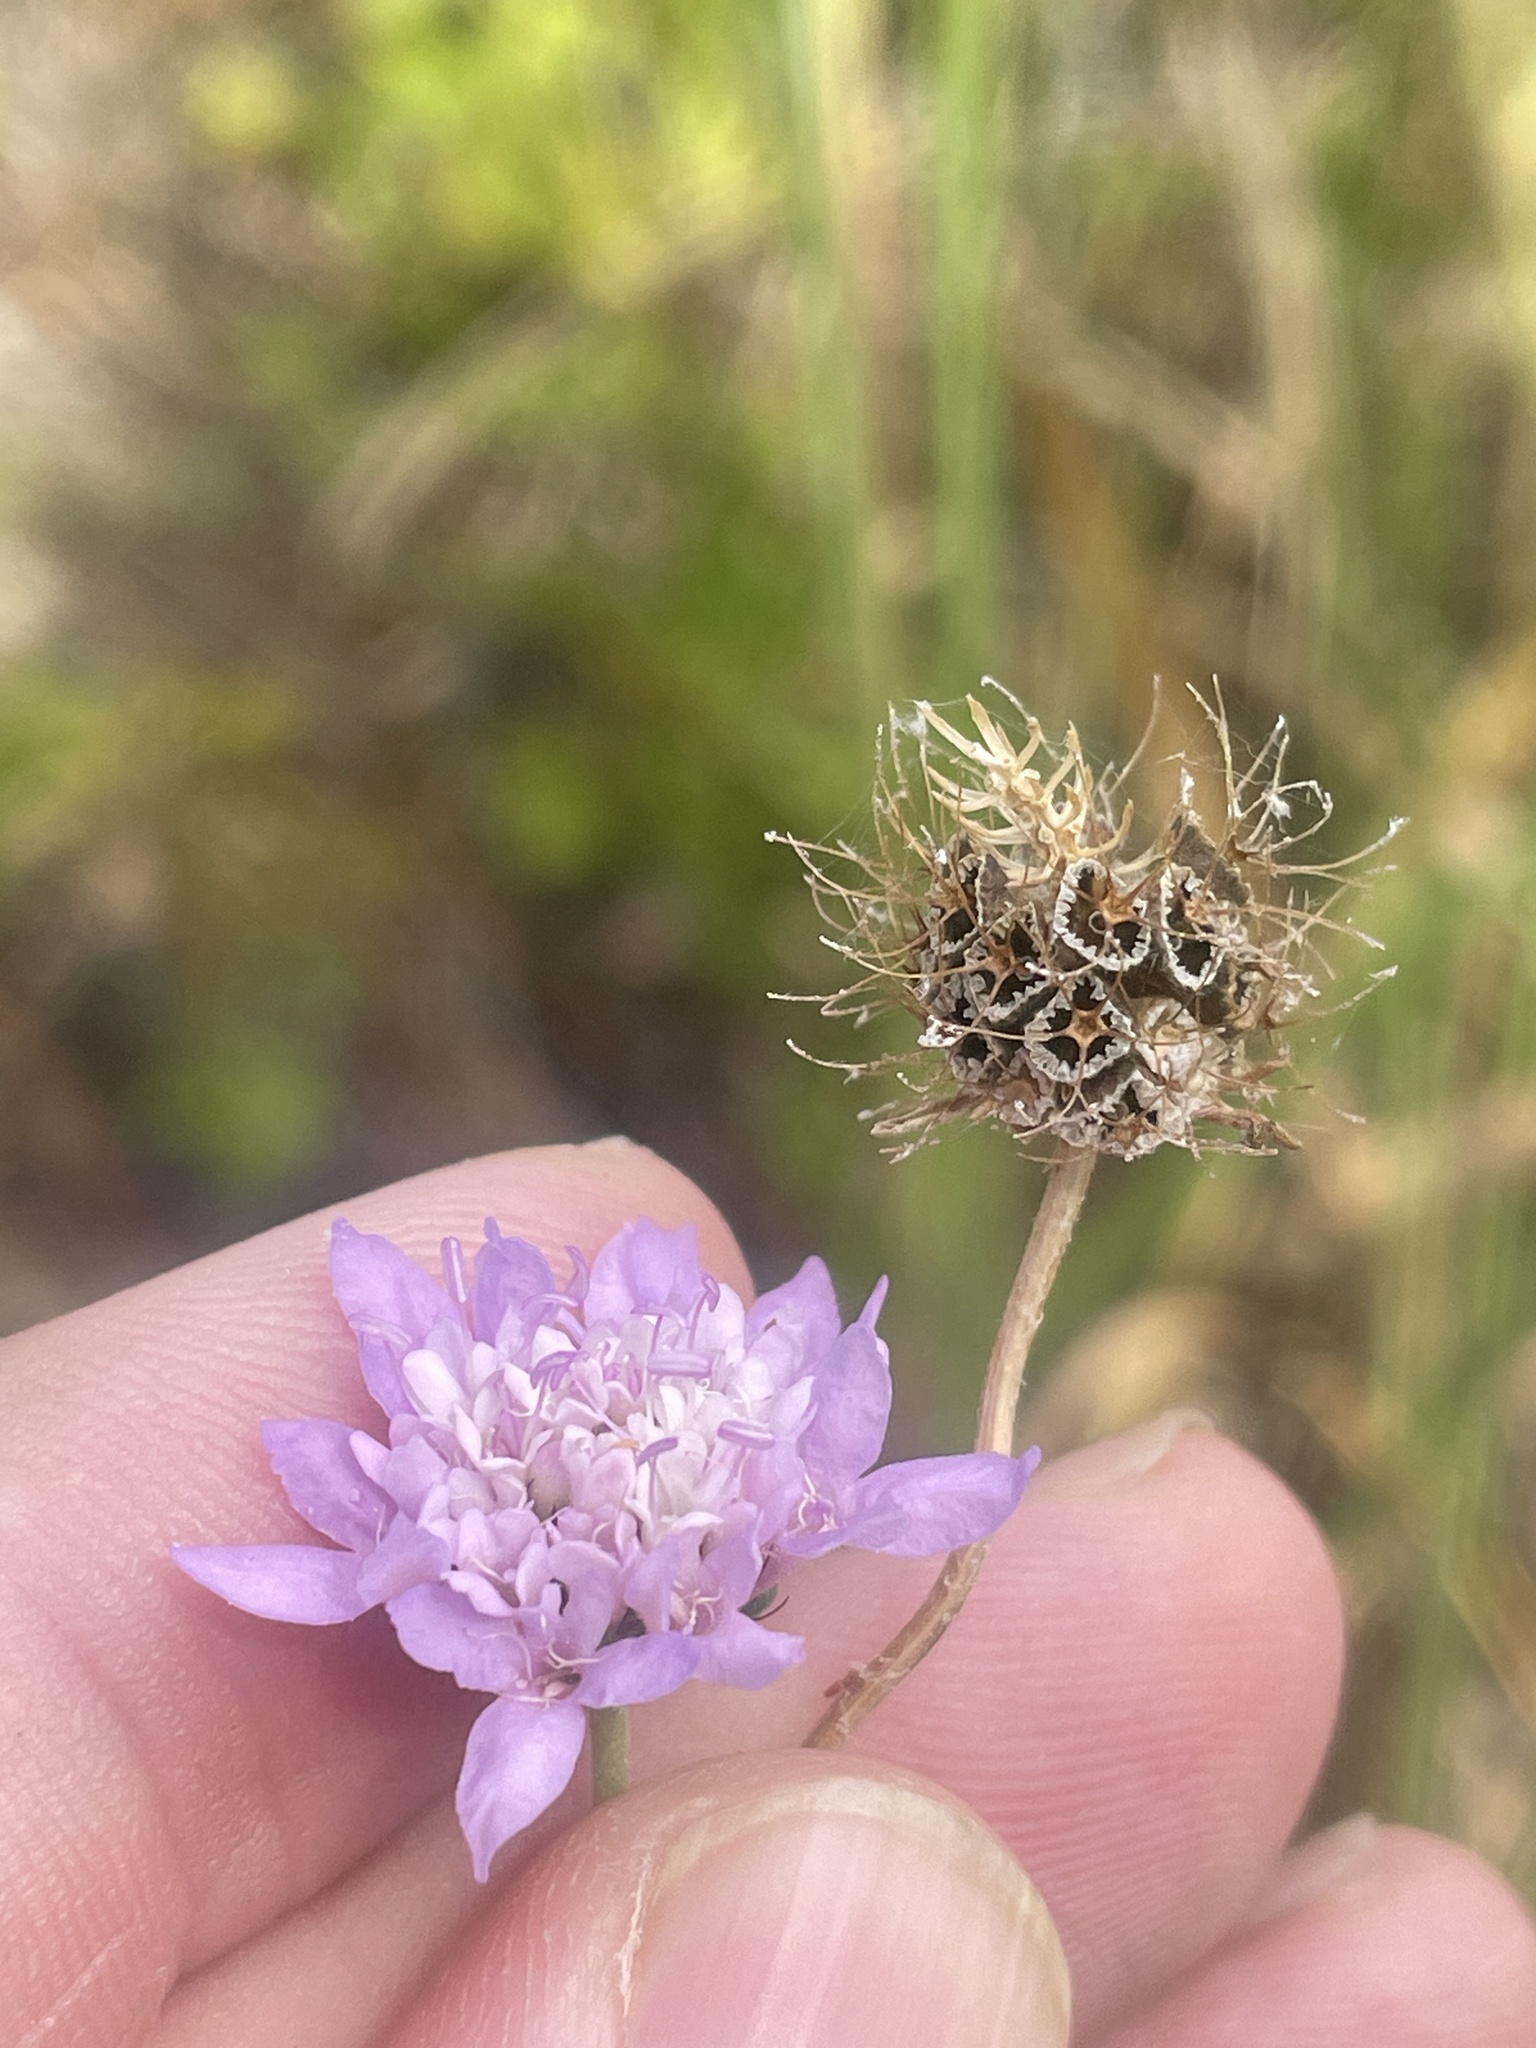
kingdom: Plantae
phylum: Tracheophyta
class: Magnoliopsida
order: Dipsacales
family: Caprifoliaceae
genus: Sixalix
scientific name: Sixalix atropurpurea
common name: Sweet scabious
